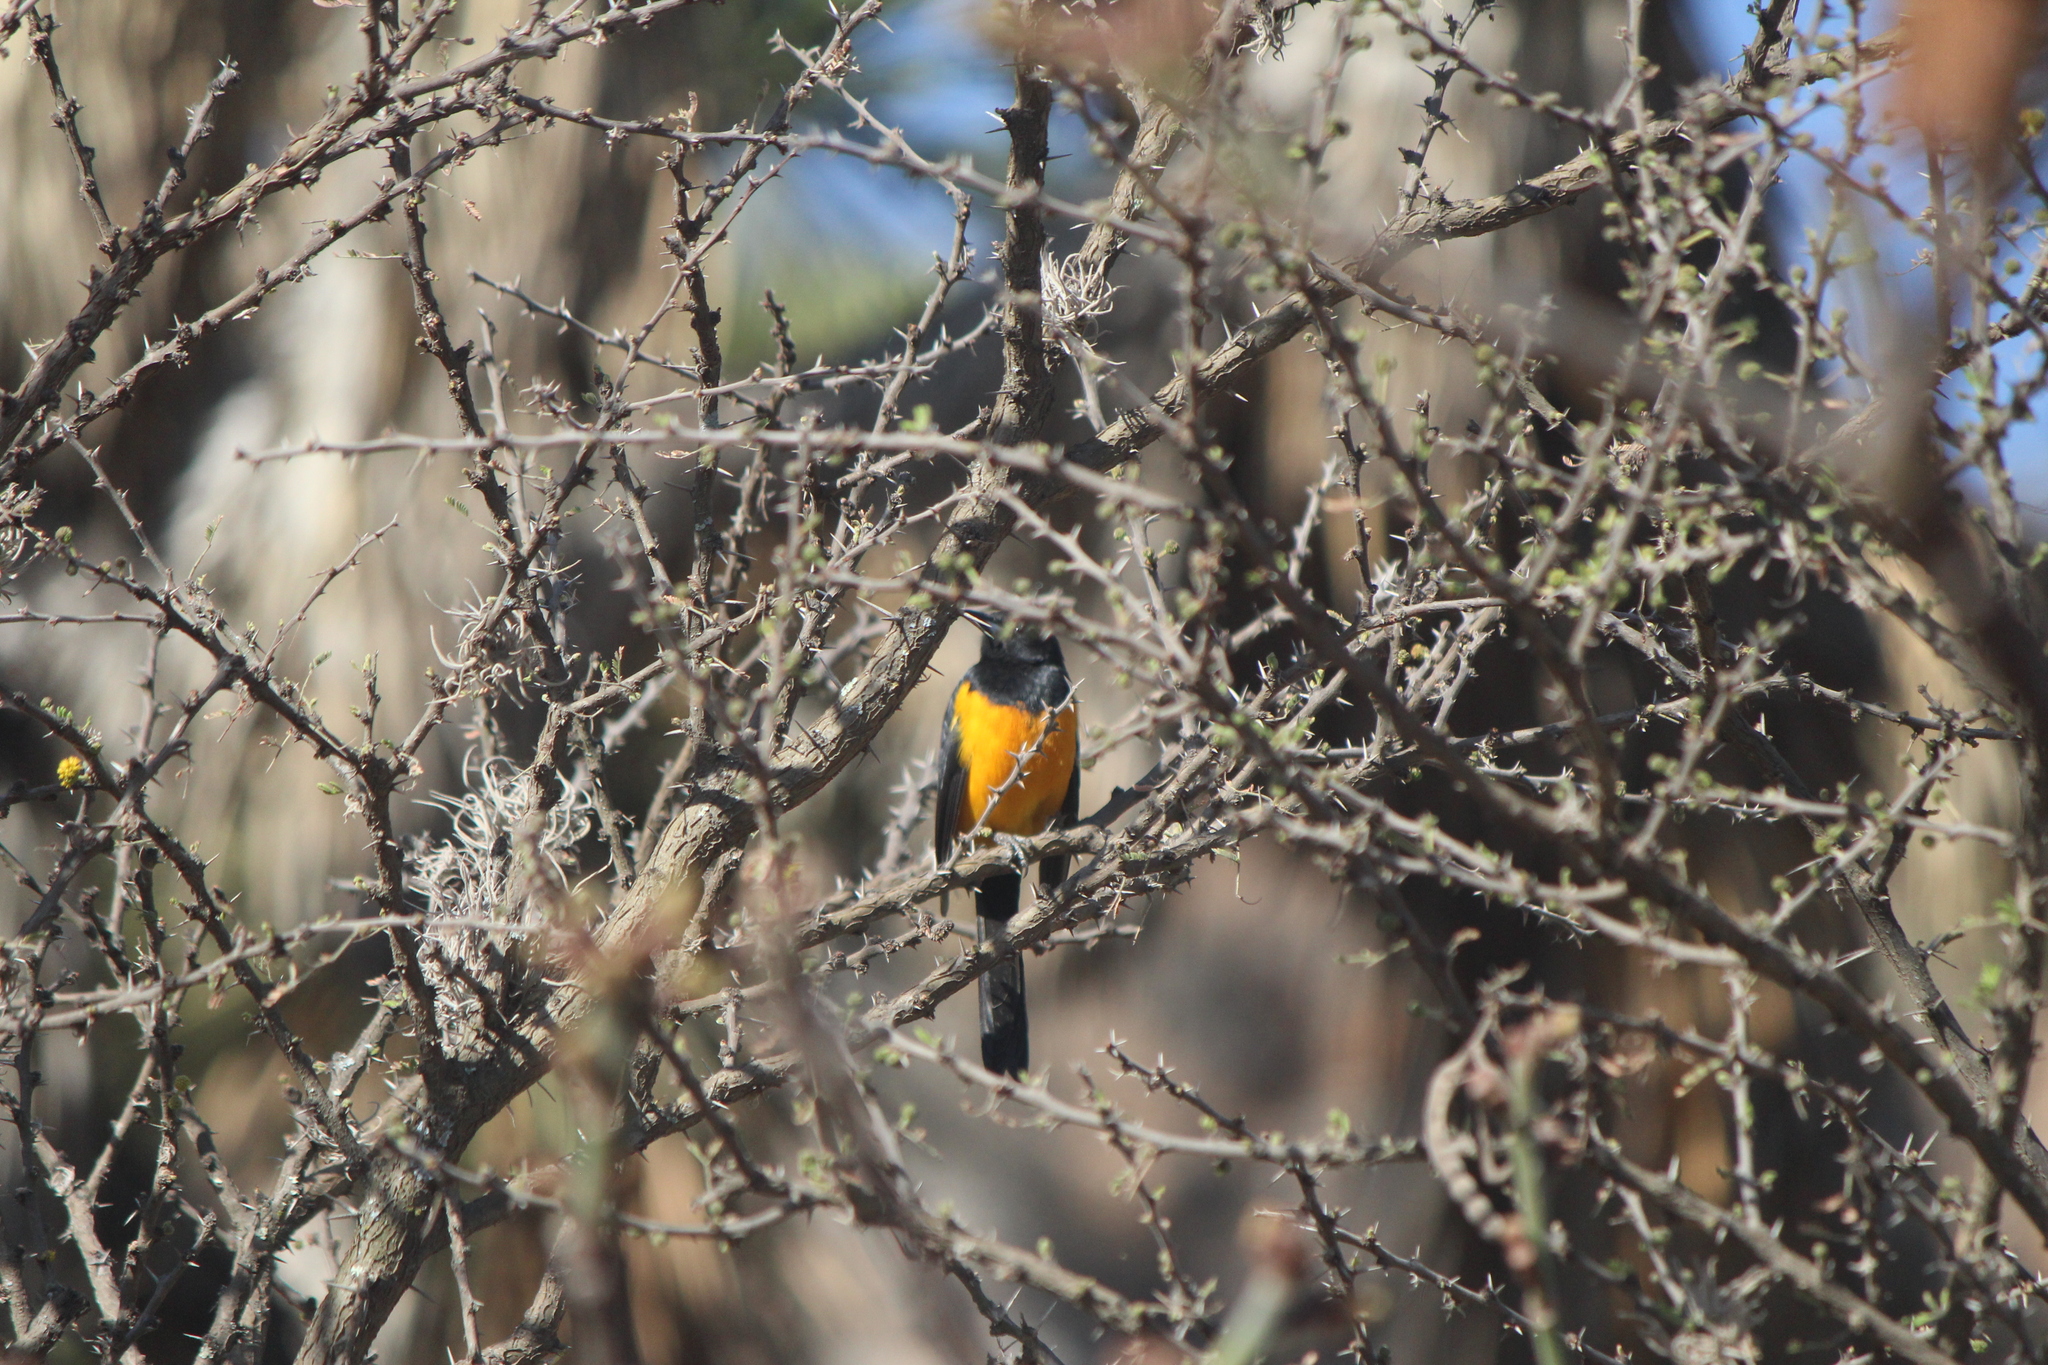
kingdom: Animalia
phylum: Chordata
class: Aves
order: Passeriformes
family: Icteridae
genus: Icterus
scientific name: Icterus wagleri
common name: Black-vented oriole
